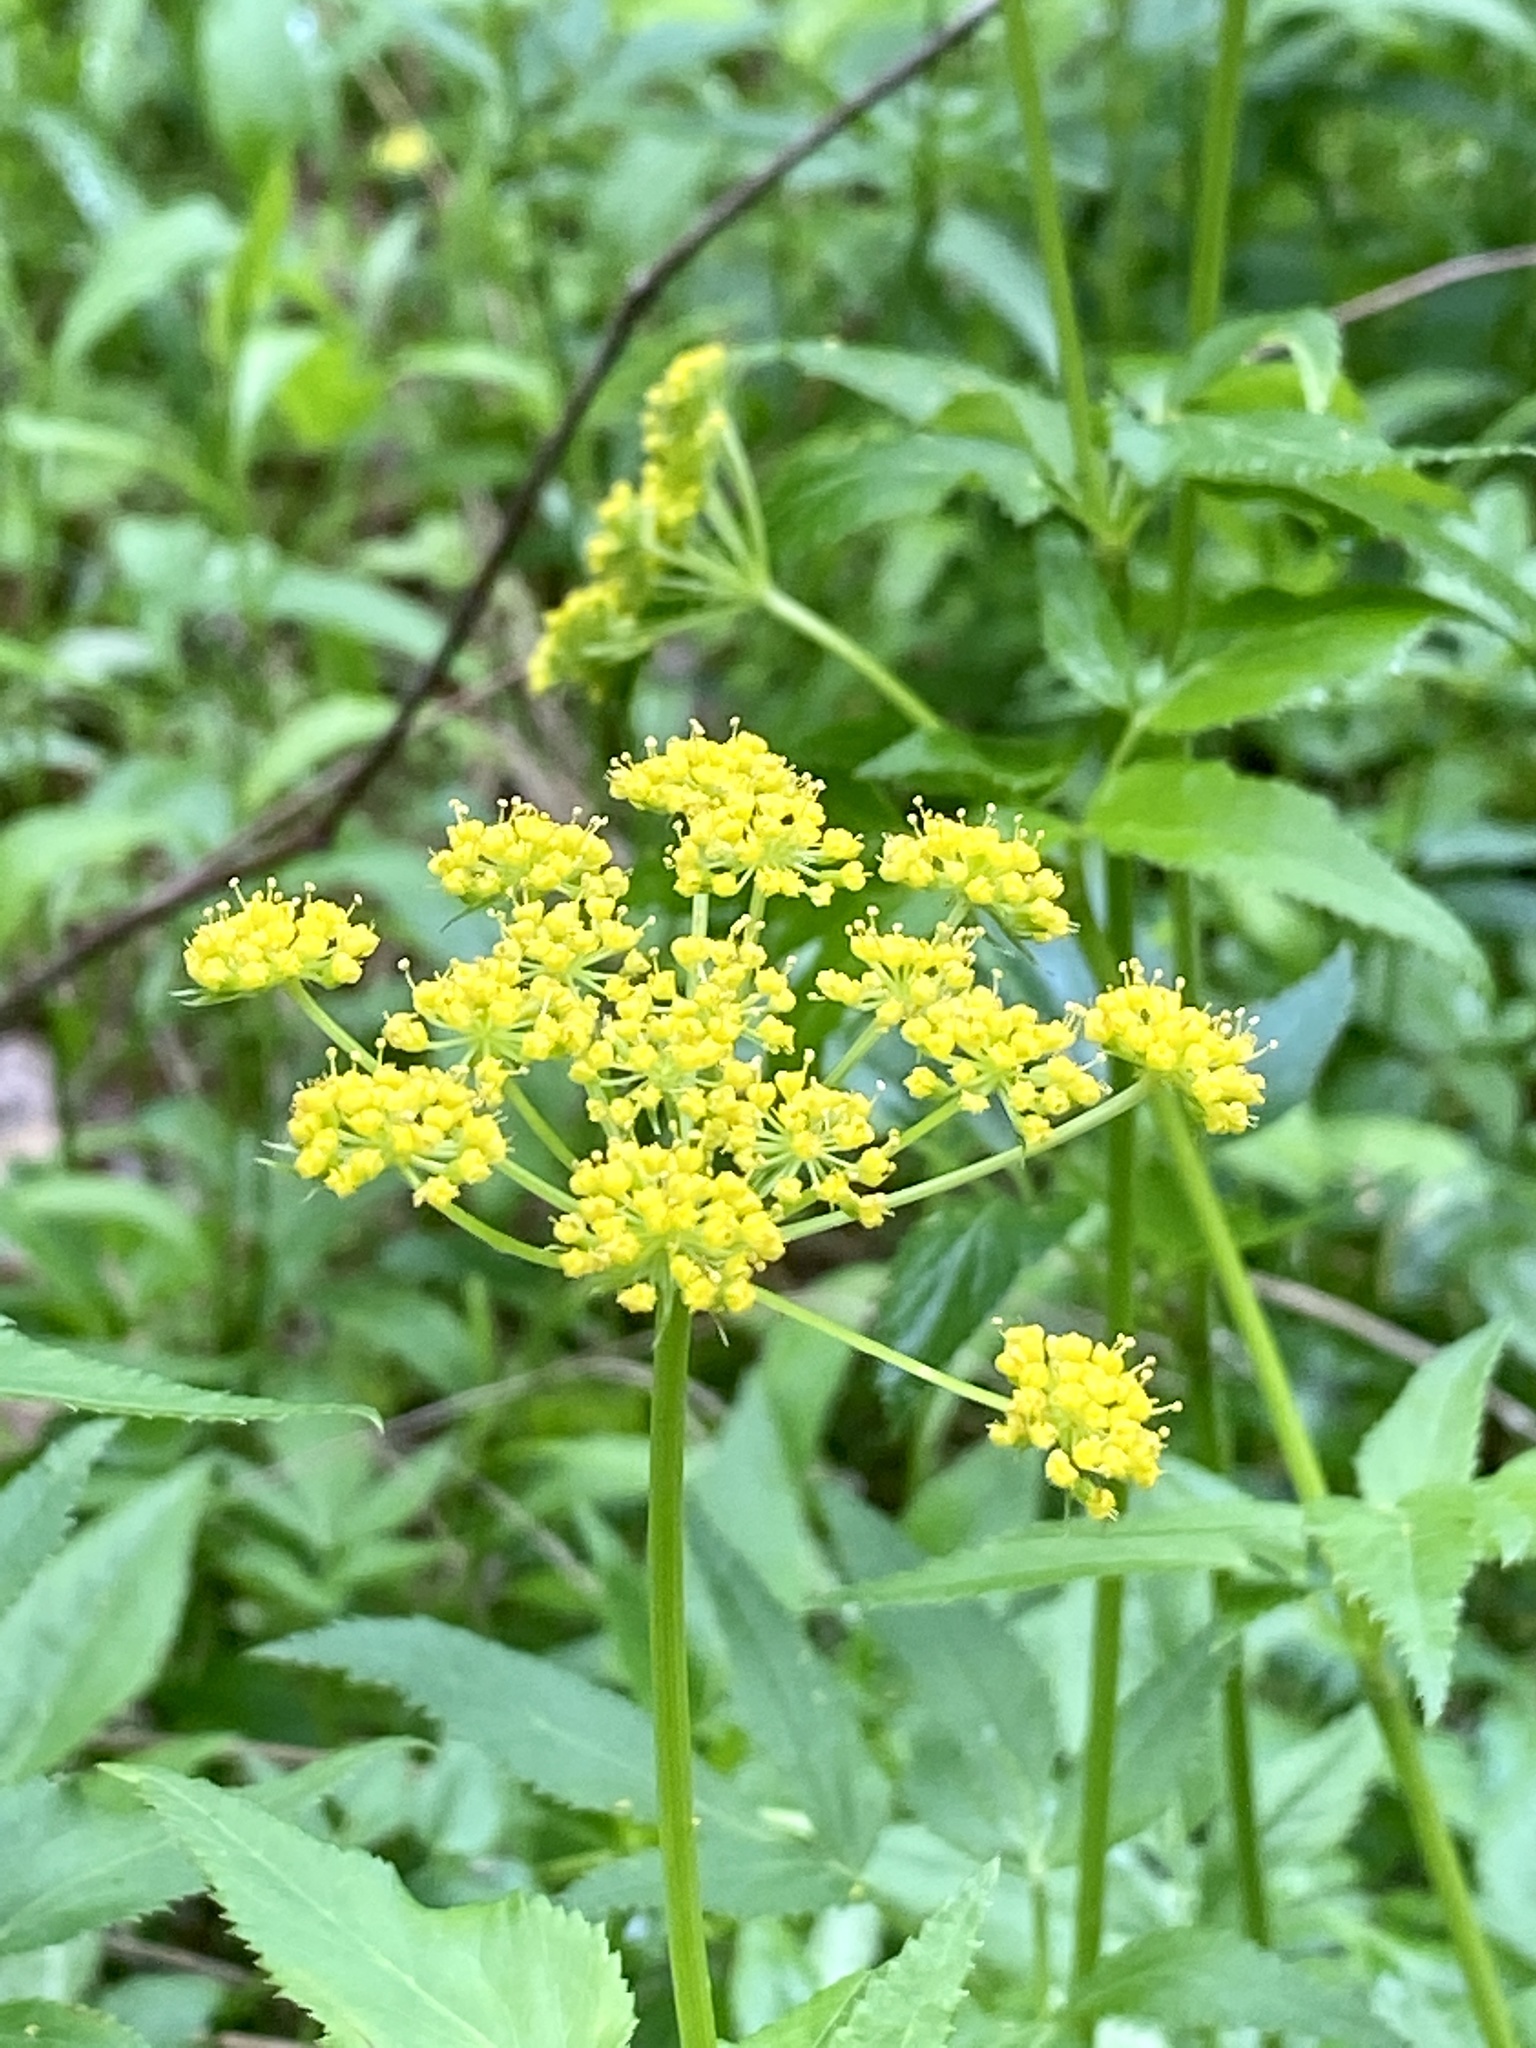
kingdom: Plantae
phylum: Tracheophyta
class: Magnoliopsida
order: Apiales
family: Apiaceae
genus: Zizia
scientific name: Zizia aurea
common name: Golden alexanders
